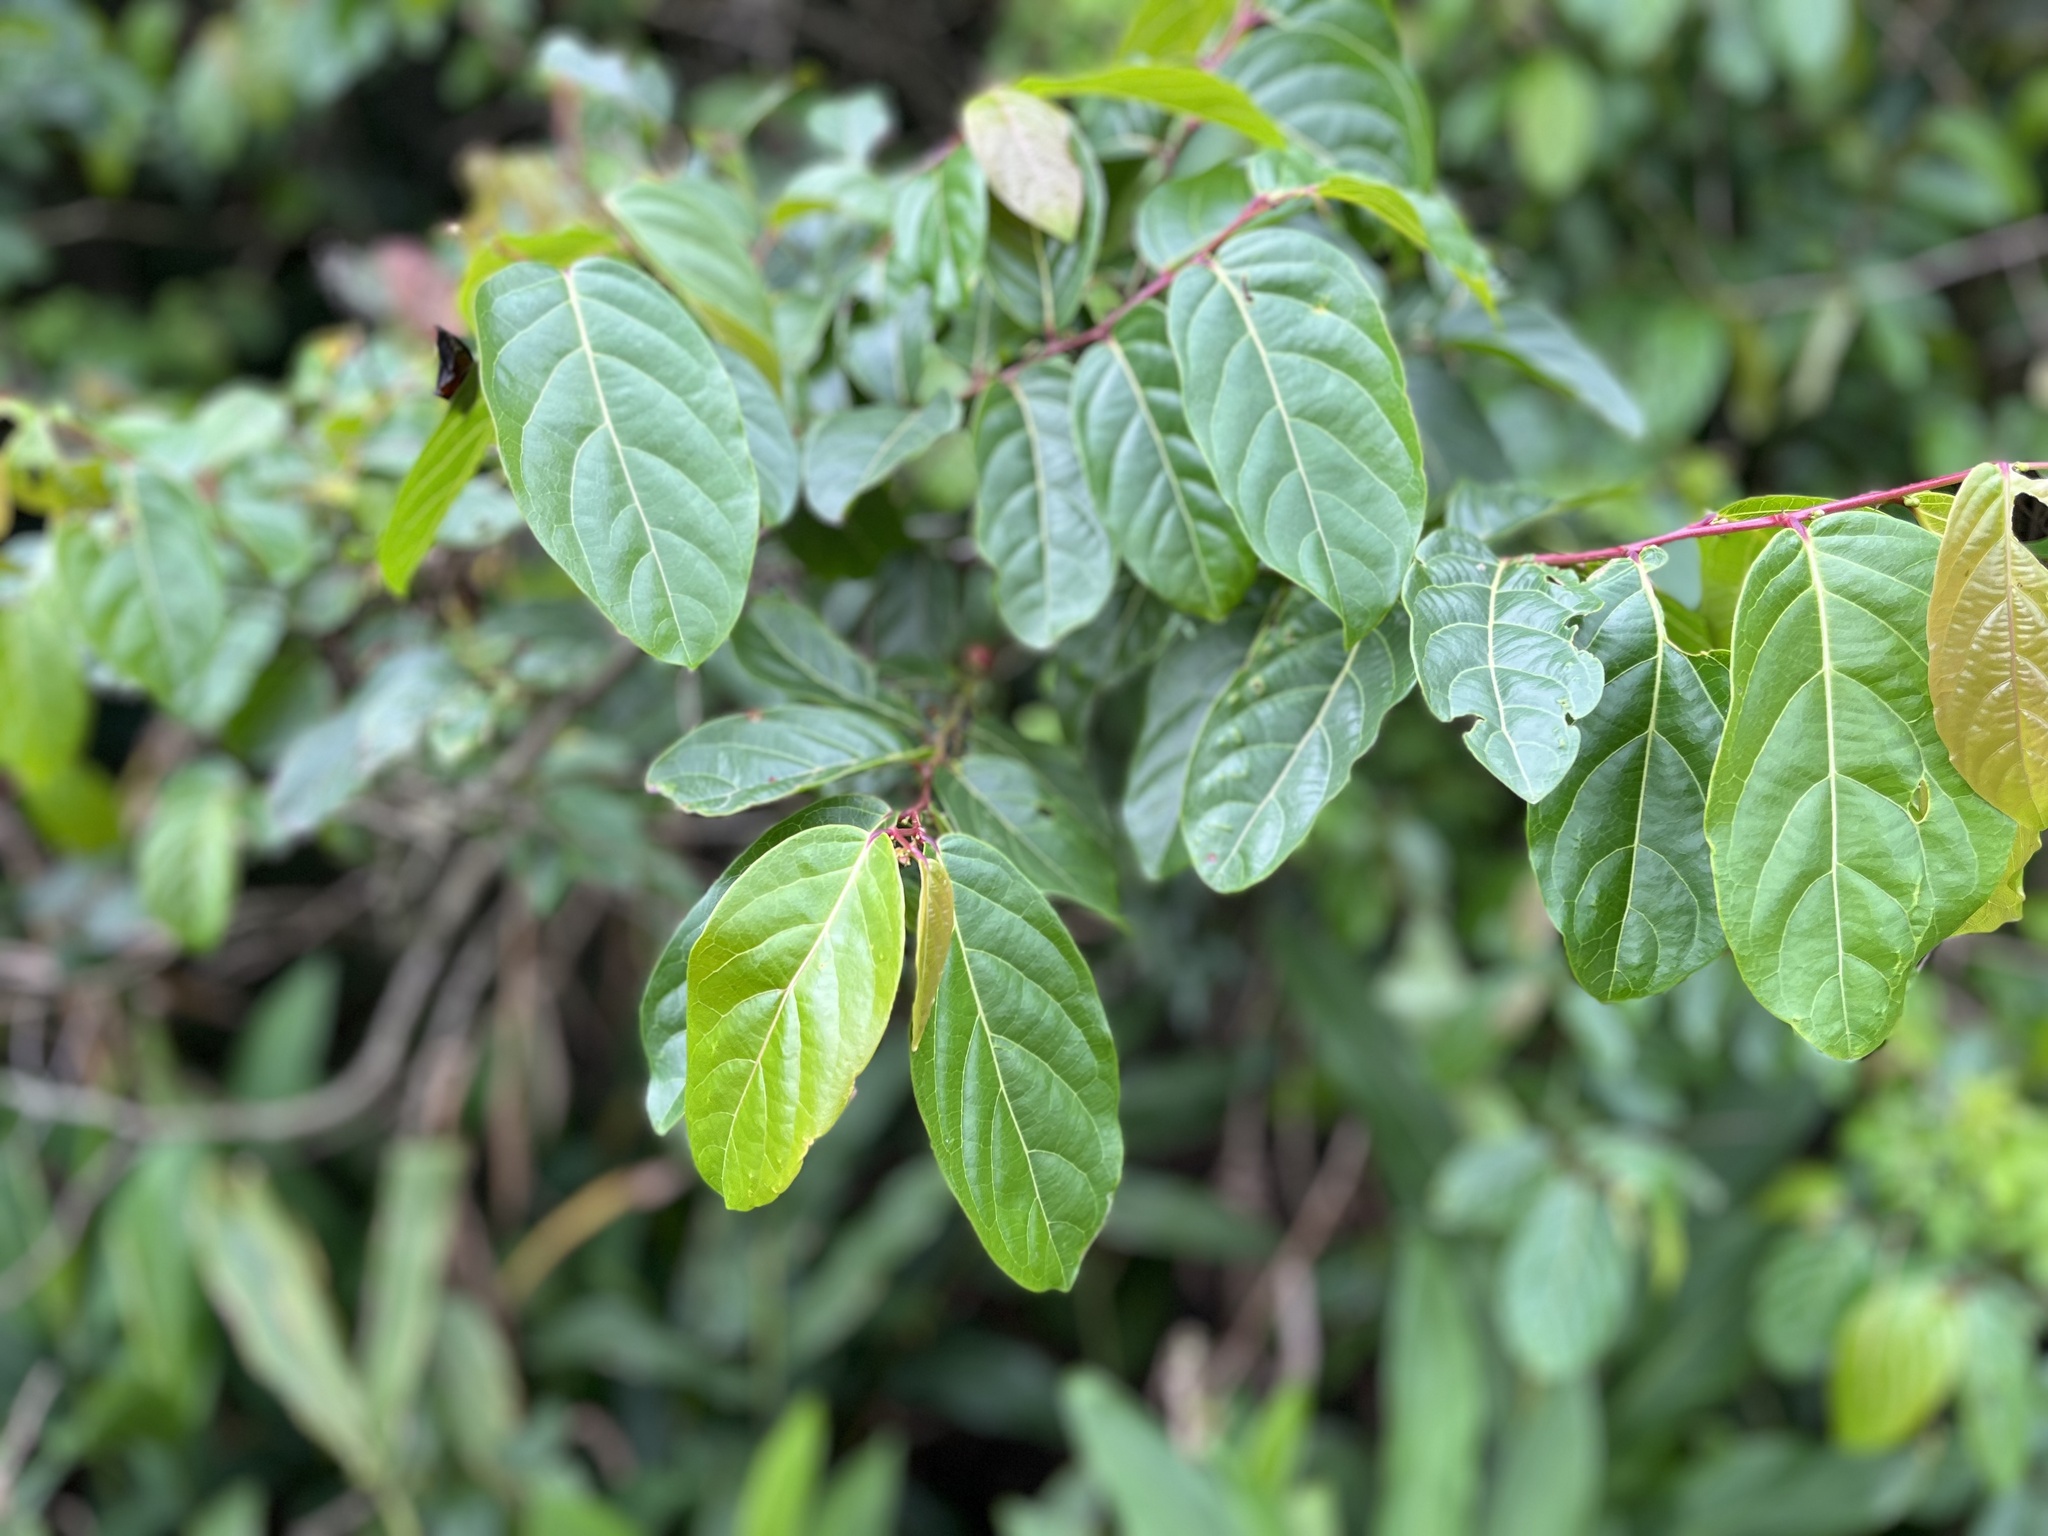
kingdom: Plantae
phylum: Tracheophyta
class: Magnoliopsida
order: Malpighiales
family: Phyllanthaceae
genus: Glochidion
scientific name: Glochidion zeylanicum
